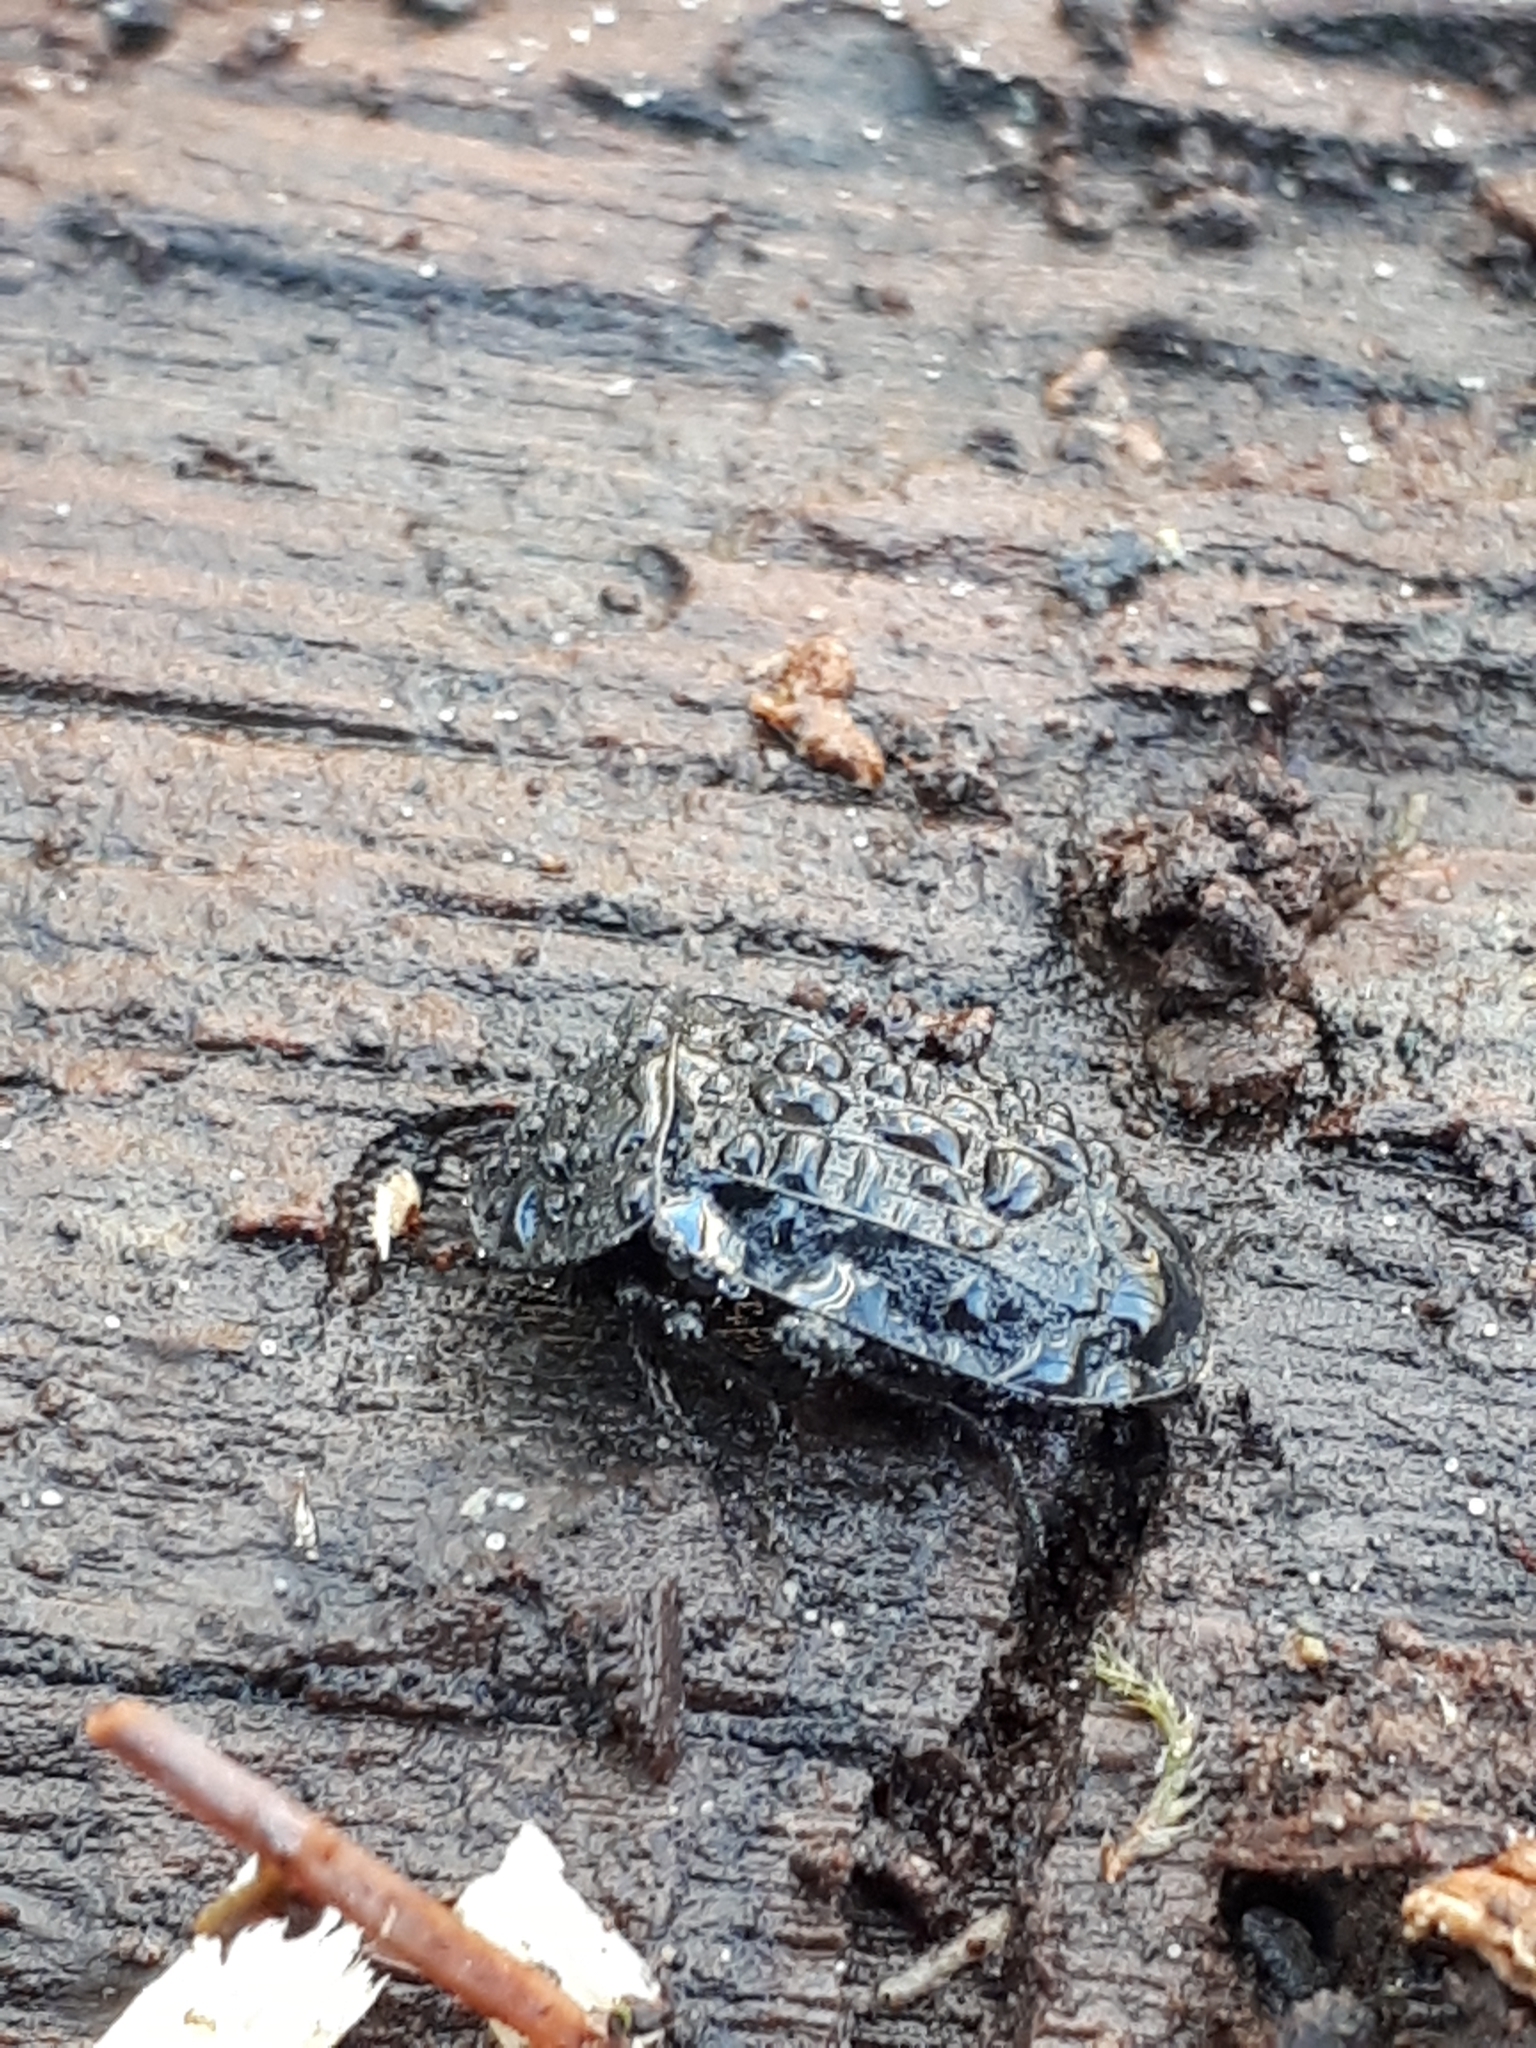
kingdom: Animalia
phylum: Arthropoda
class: Insecta
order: Coleoptera
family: Staphylinidae
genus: Silpha
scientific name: Silpha atrata
